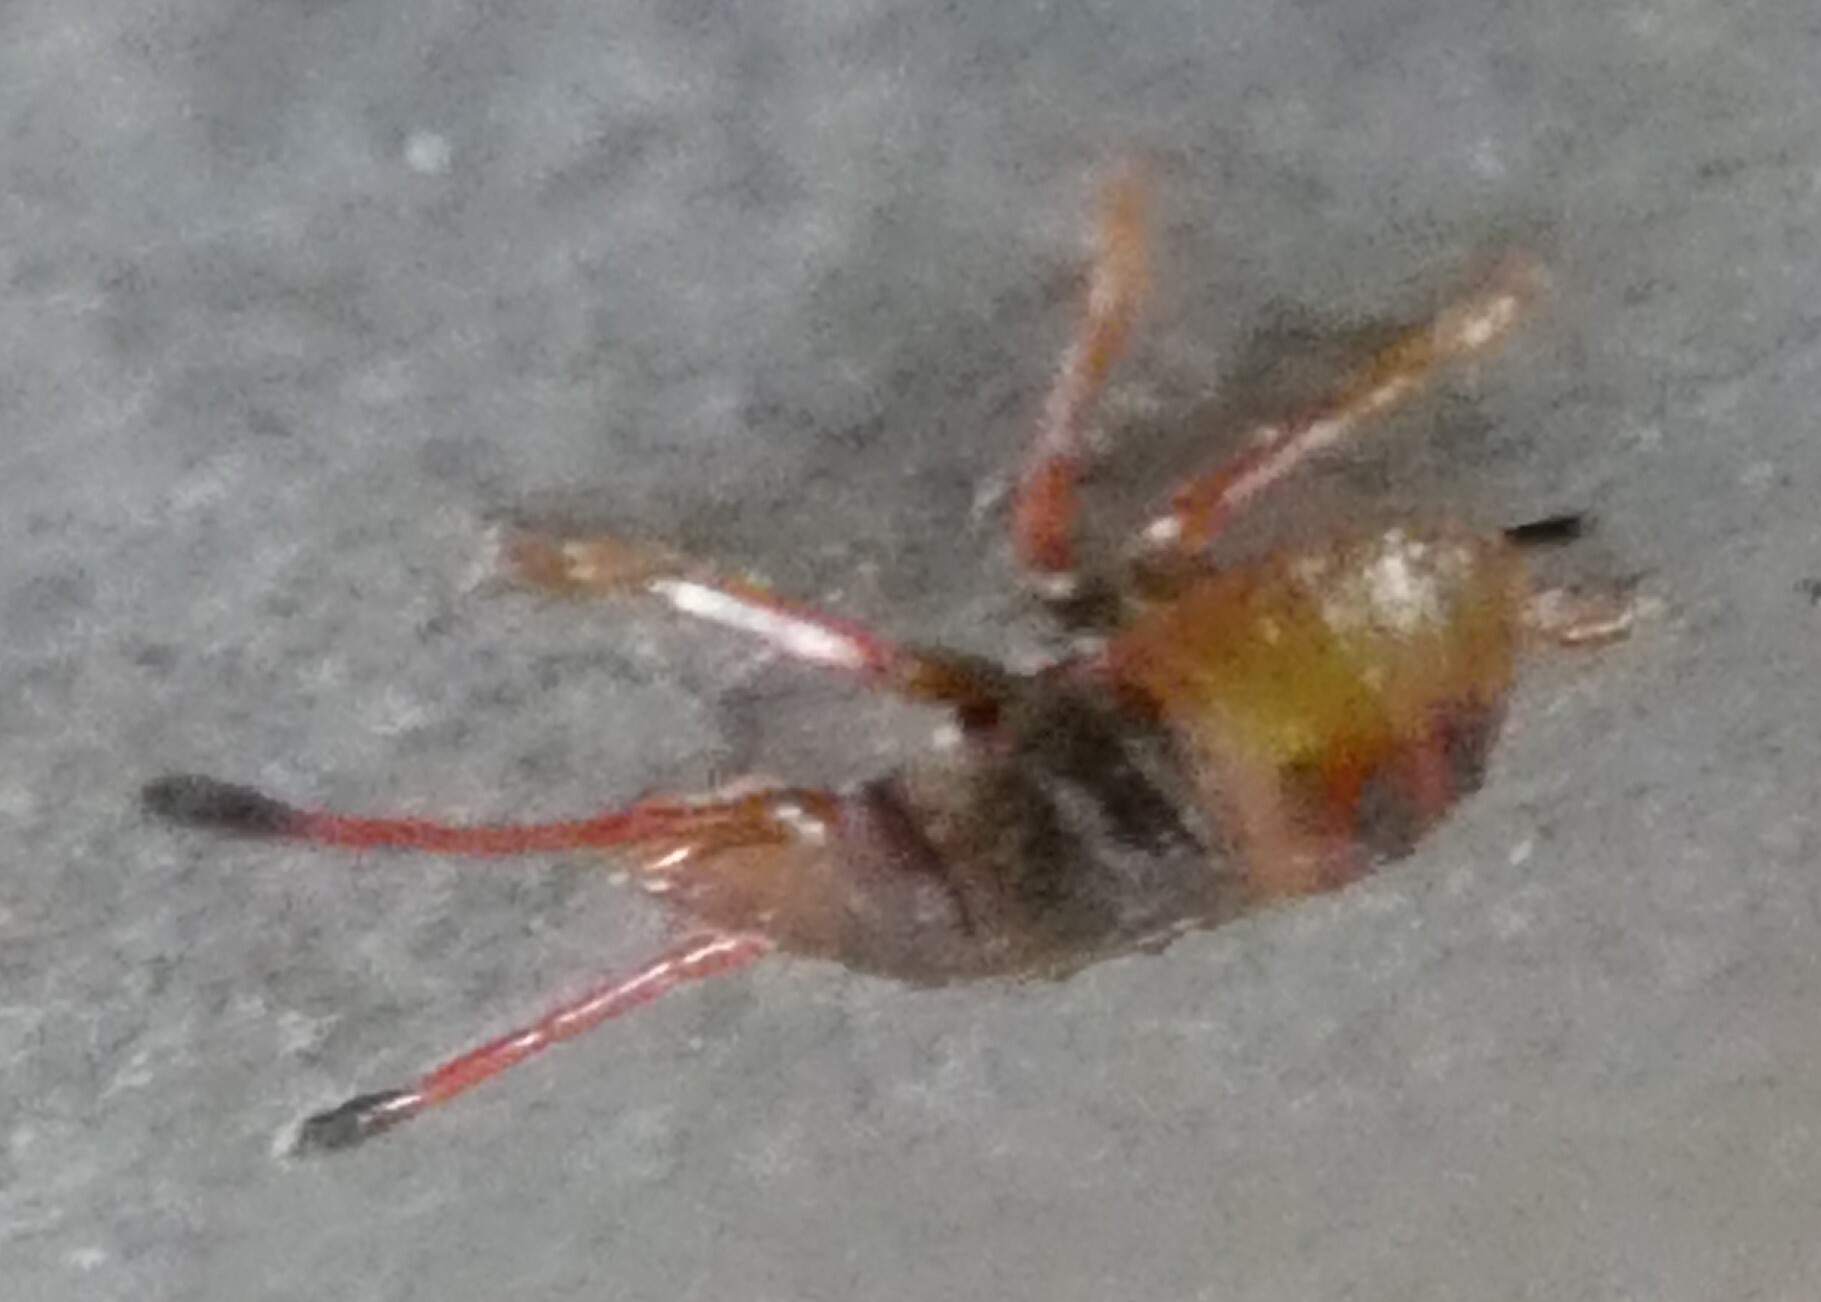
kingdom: Animalia
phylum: Arthropoda
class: Insecta
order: Hemiptera
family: Acanthosomatidae
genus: Acanthosoma
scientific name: Acanthosoma haemorrhoidale
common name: Hawthorn shieldbug
